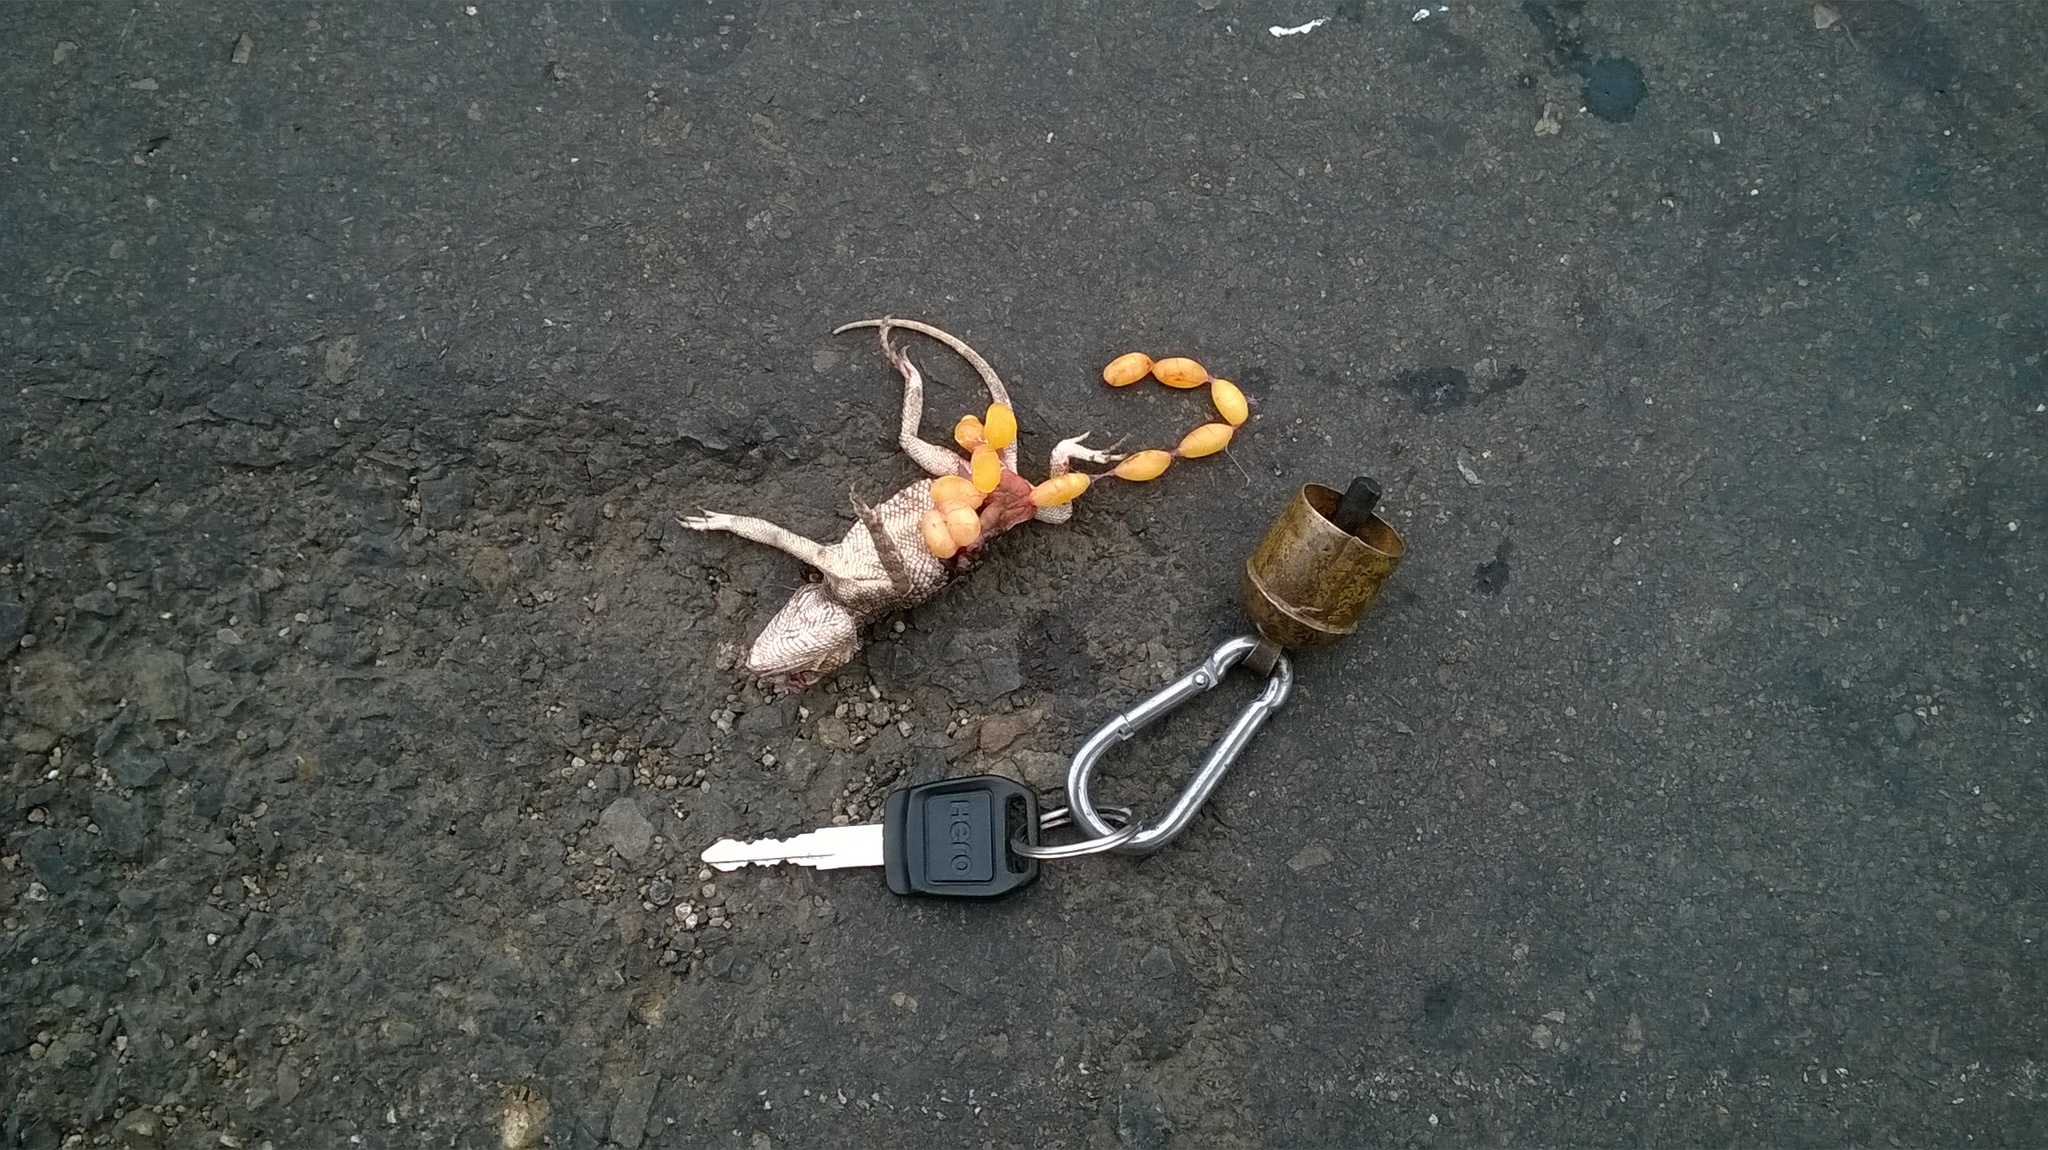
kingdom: Animalia
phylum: Chordata
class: Squamata
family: Agamidae
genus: Calotes
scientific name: Calotes minor
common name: Dwarf rock agama
